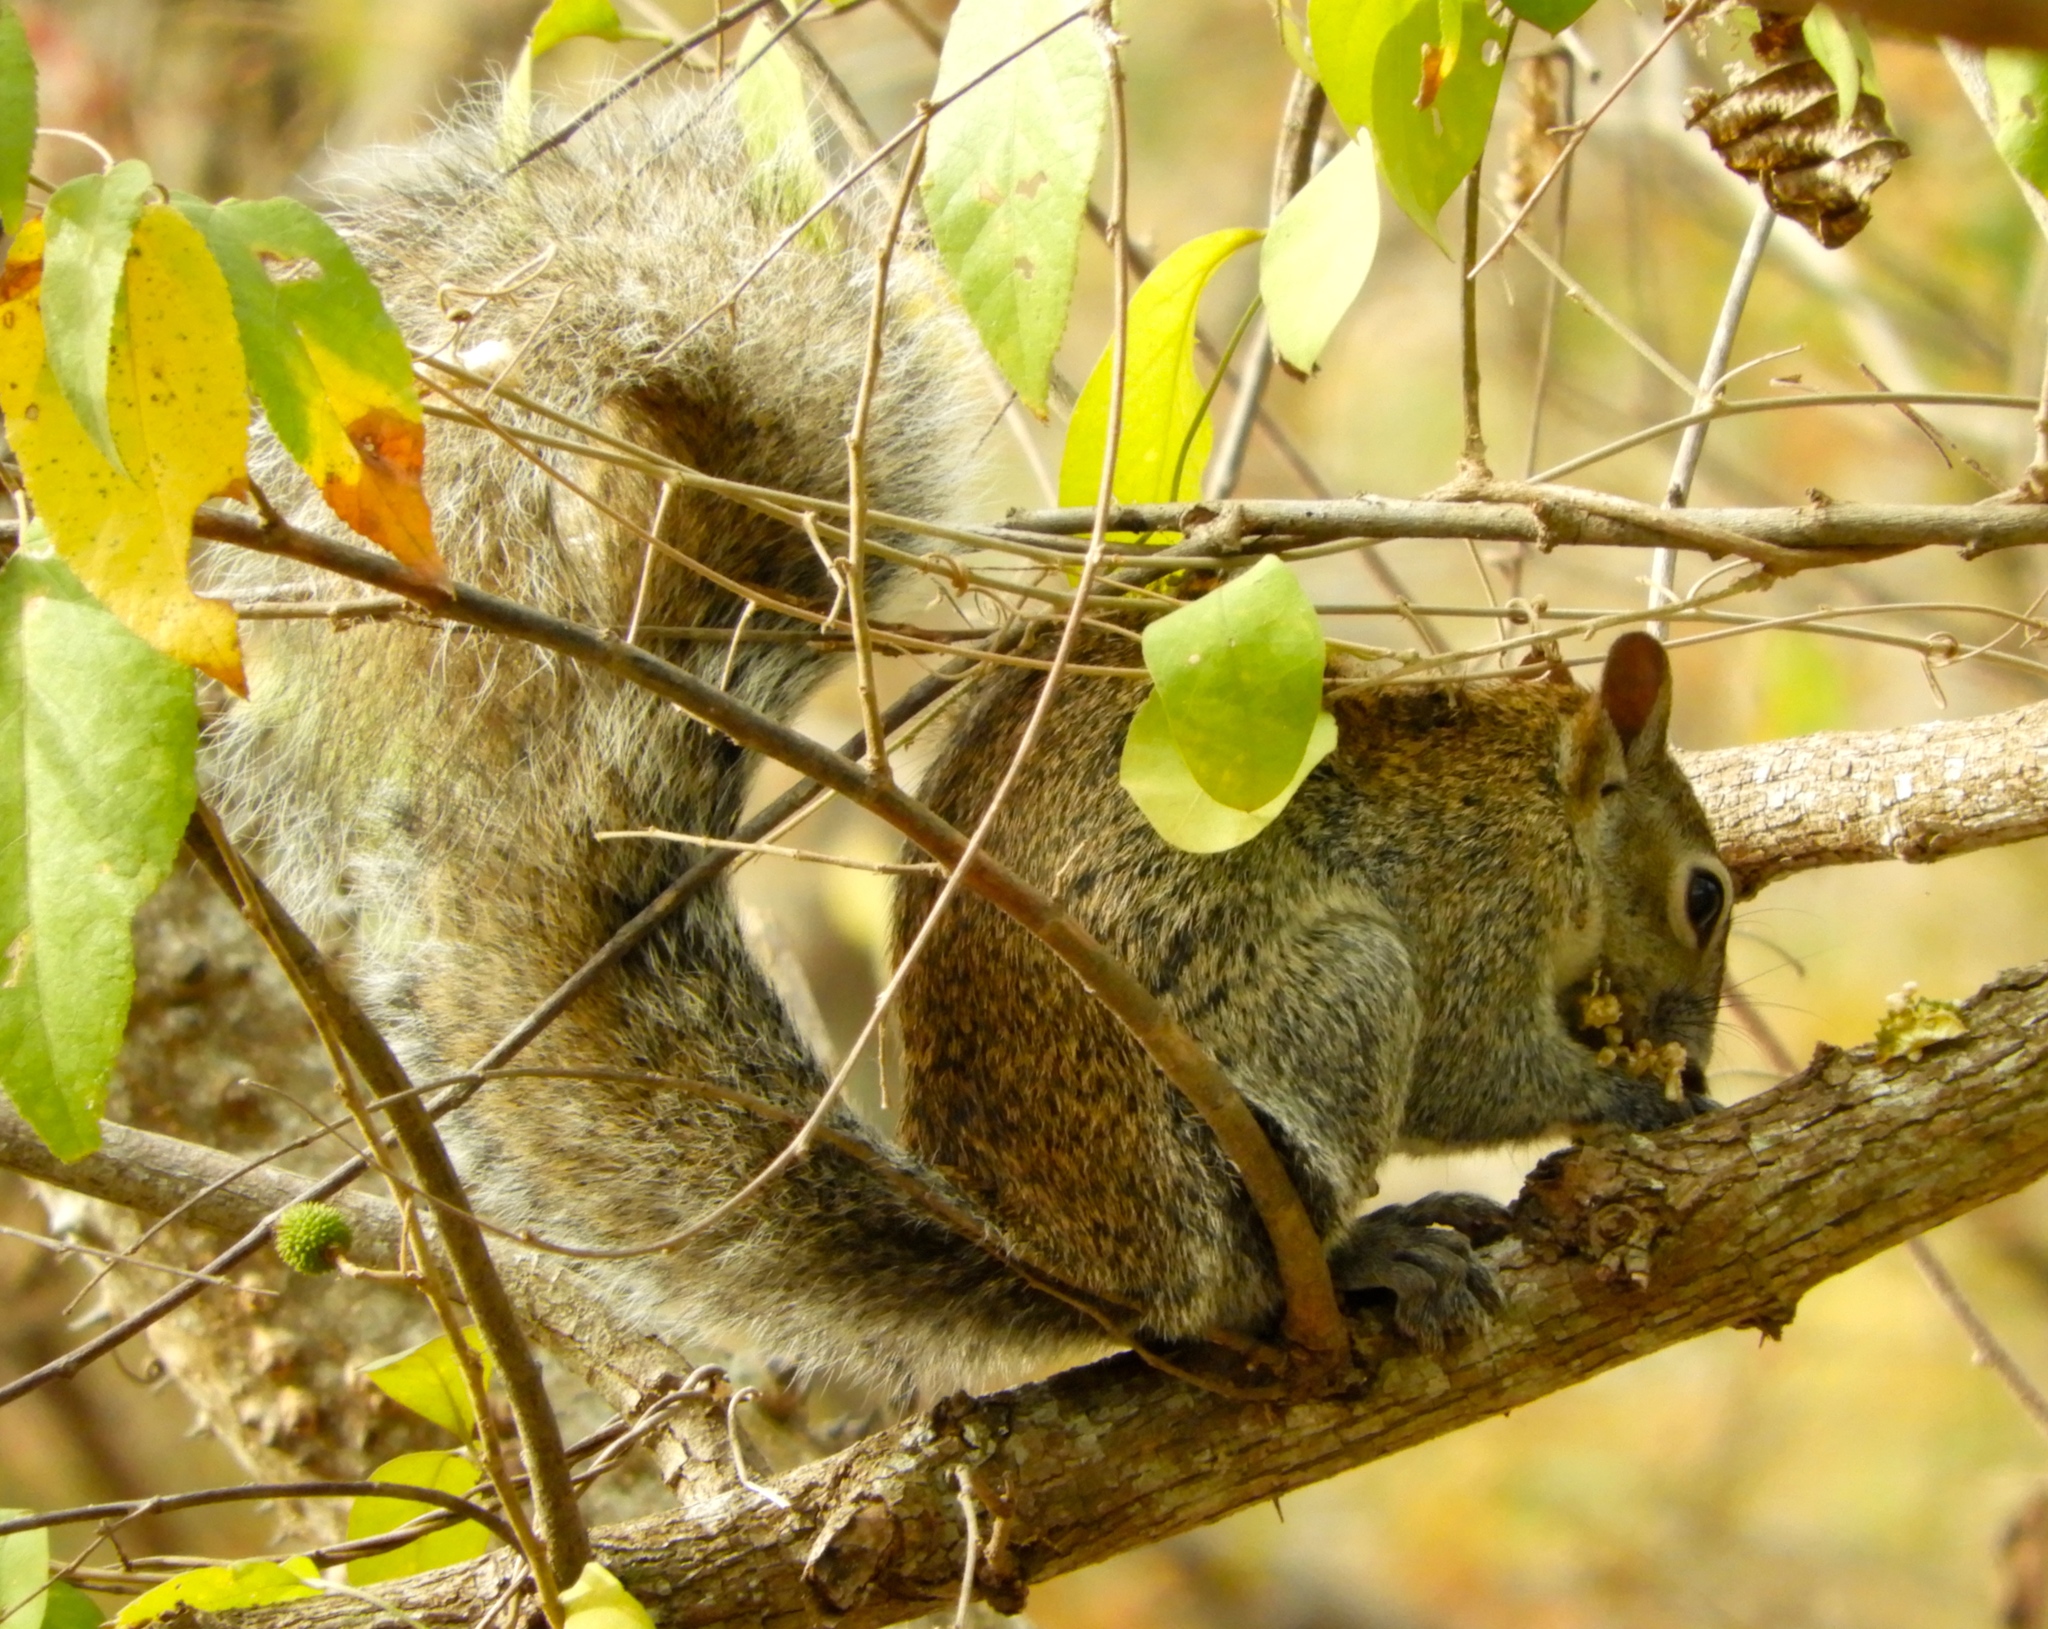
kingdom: Animalia
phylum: Chordata
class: Mammalia
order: Rodentia
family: Sciuridae
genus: Sciurus
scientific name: Sciurus colliaei
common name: Collie's squirrel
